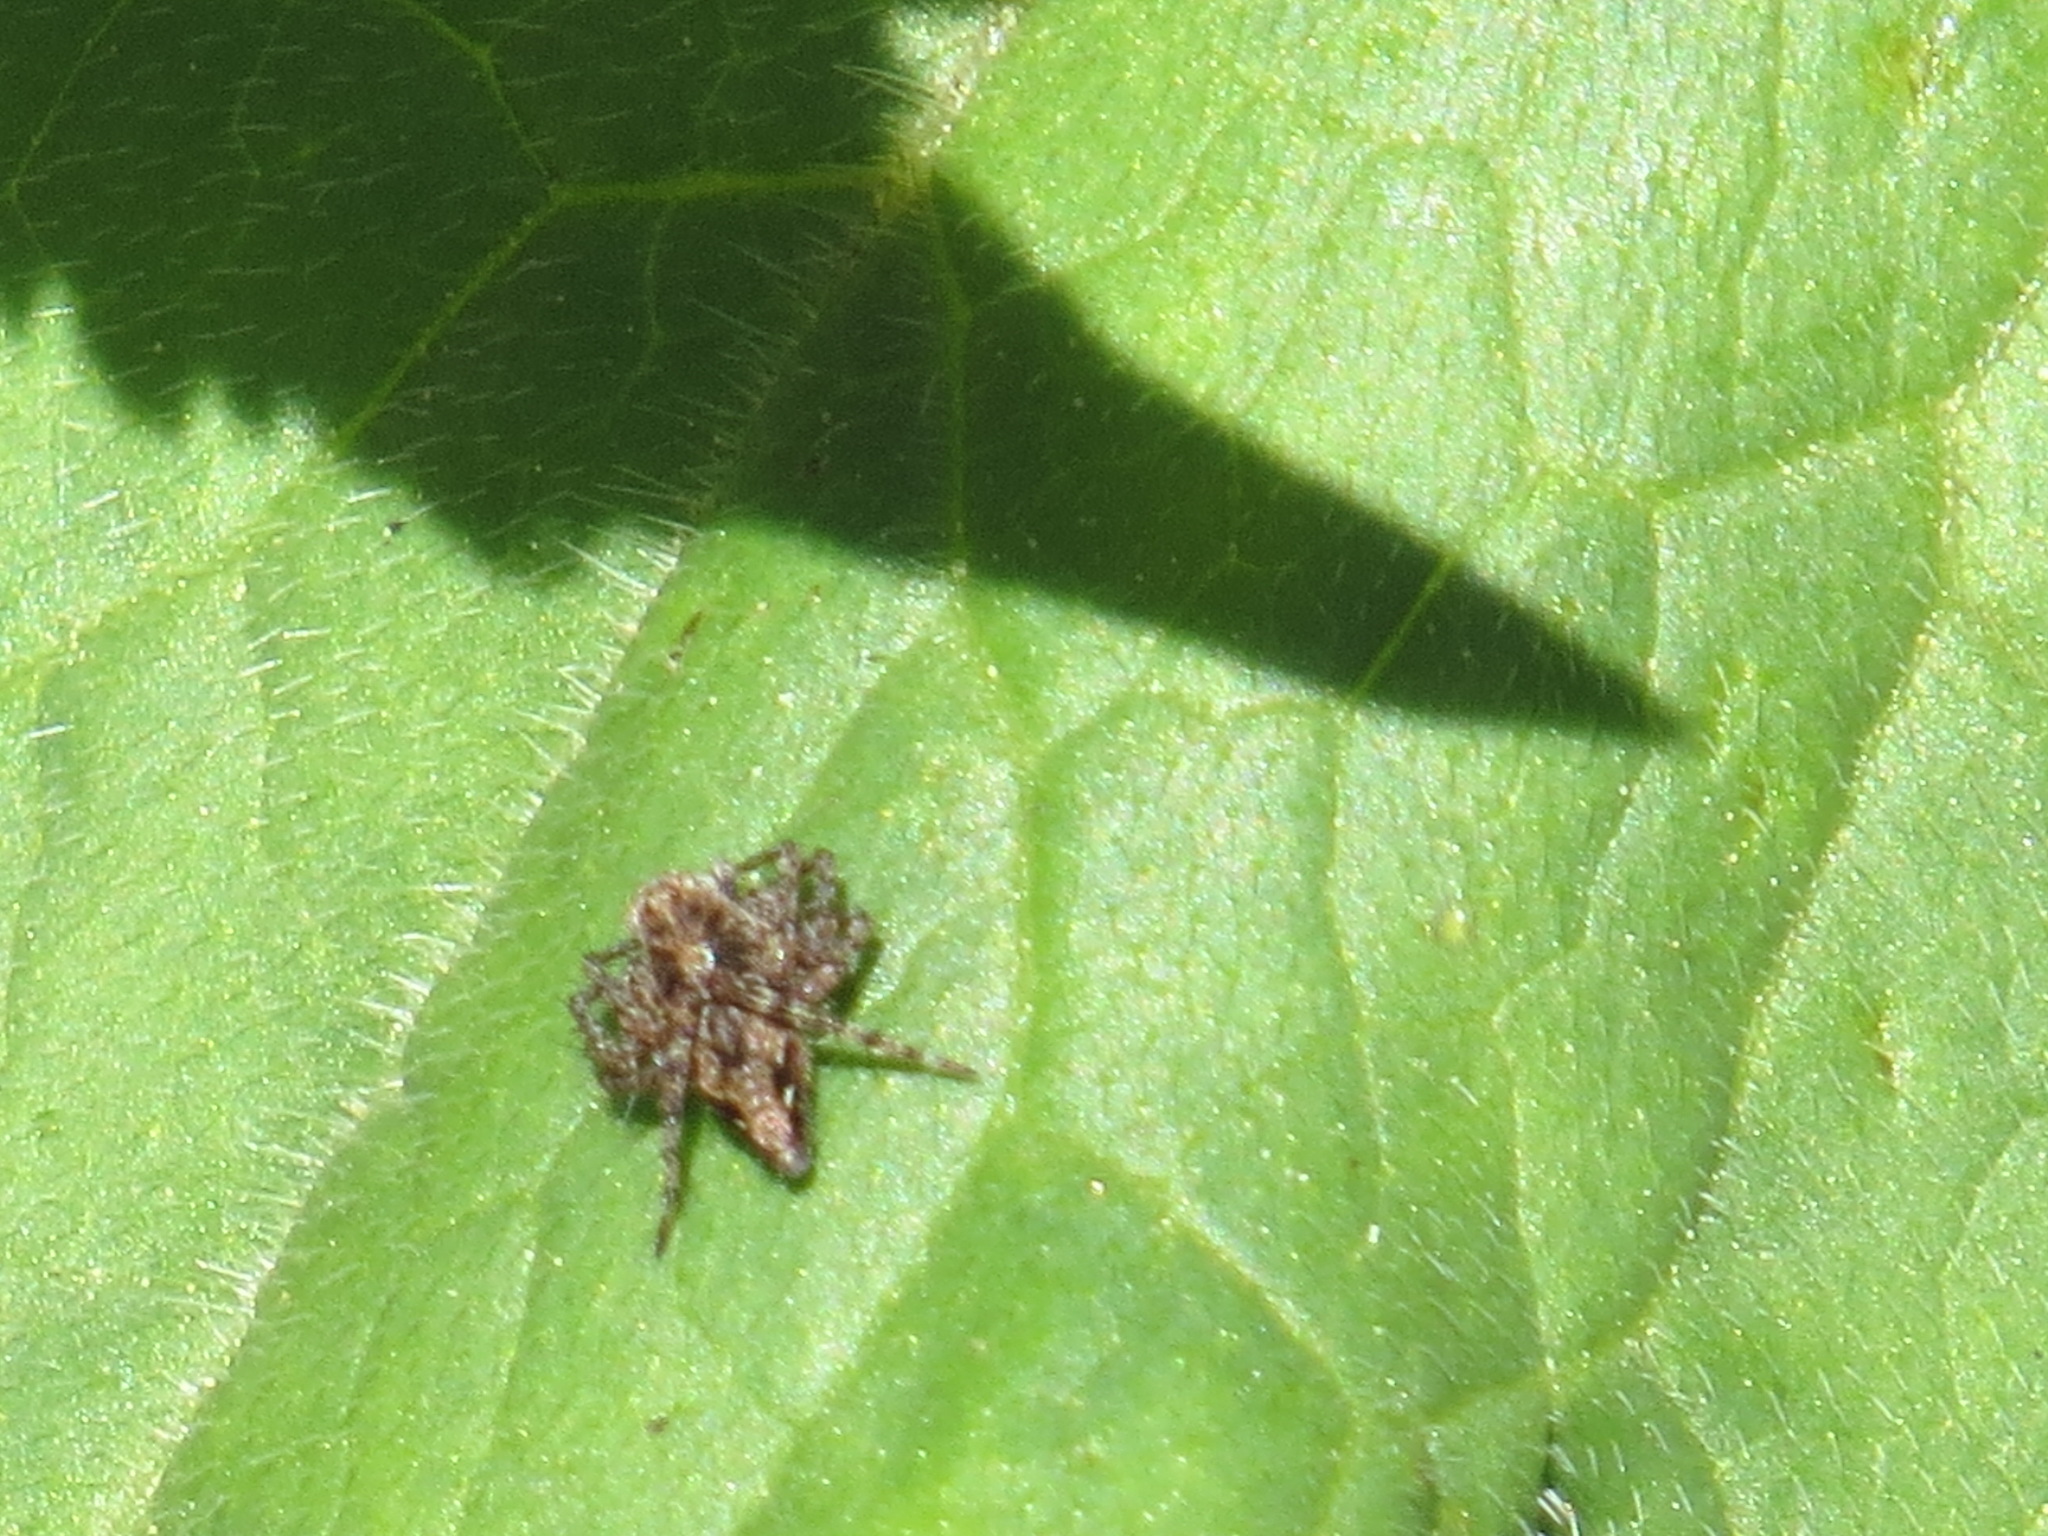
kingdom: Animalia
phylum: Arthropoda
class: Arachnida
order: Araneae
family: Oxyopidae
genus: Oxyopes
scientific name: Oxyopes scalaris
